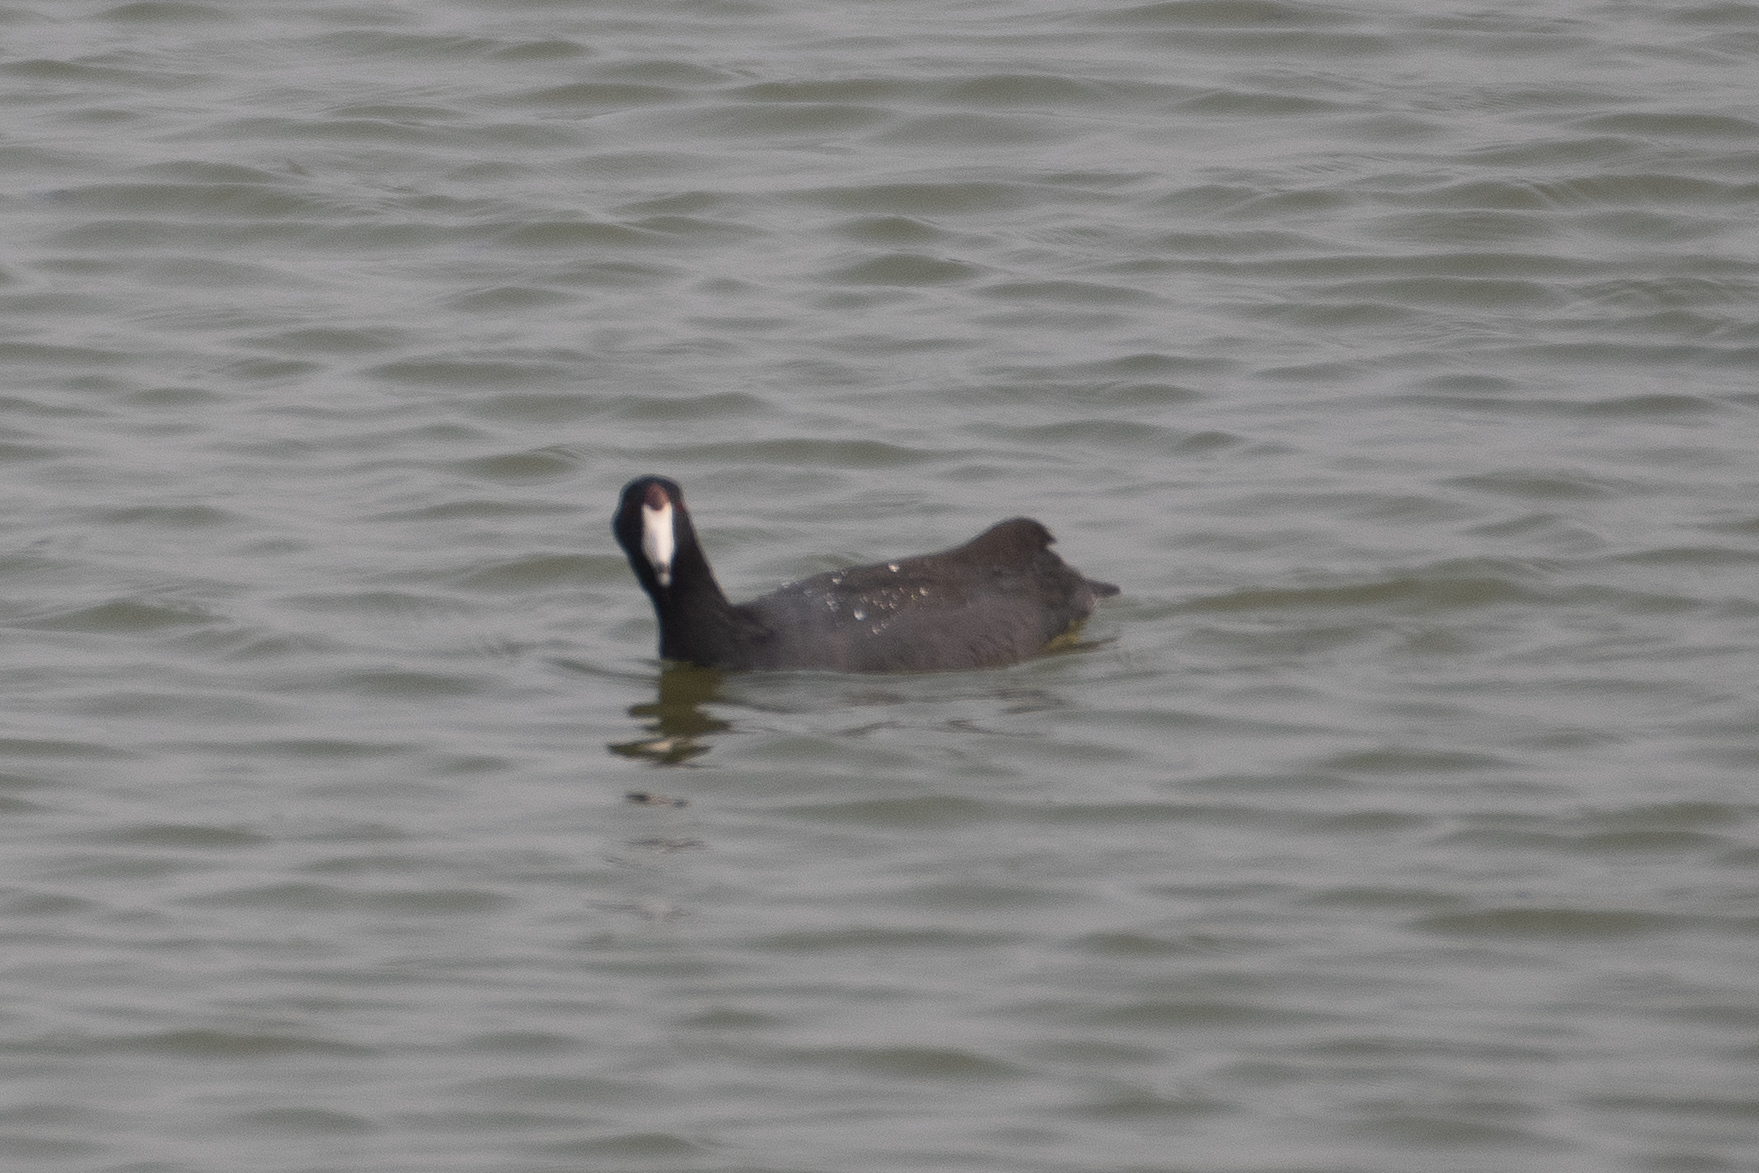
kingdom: Animalia
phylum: Chordata
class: Aves
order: Gruiformes
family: Rallidae
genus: Fulica
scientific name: Fulica americana
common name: American coot
